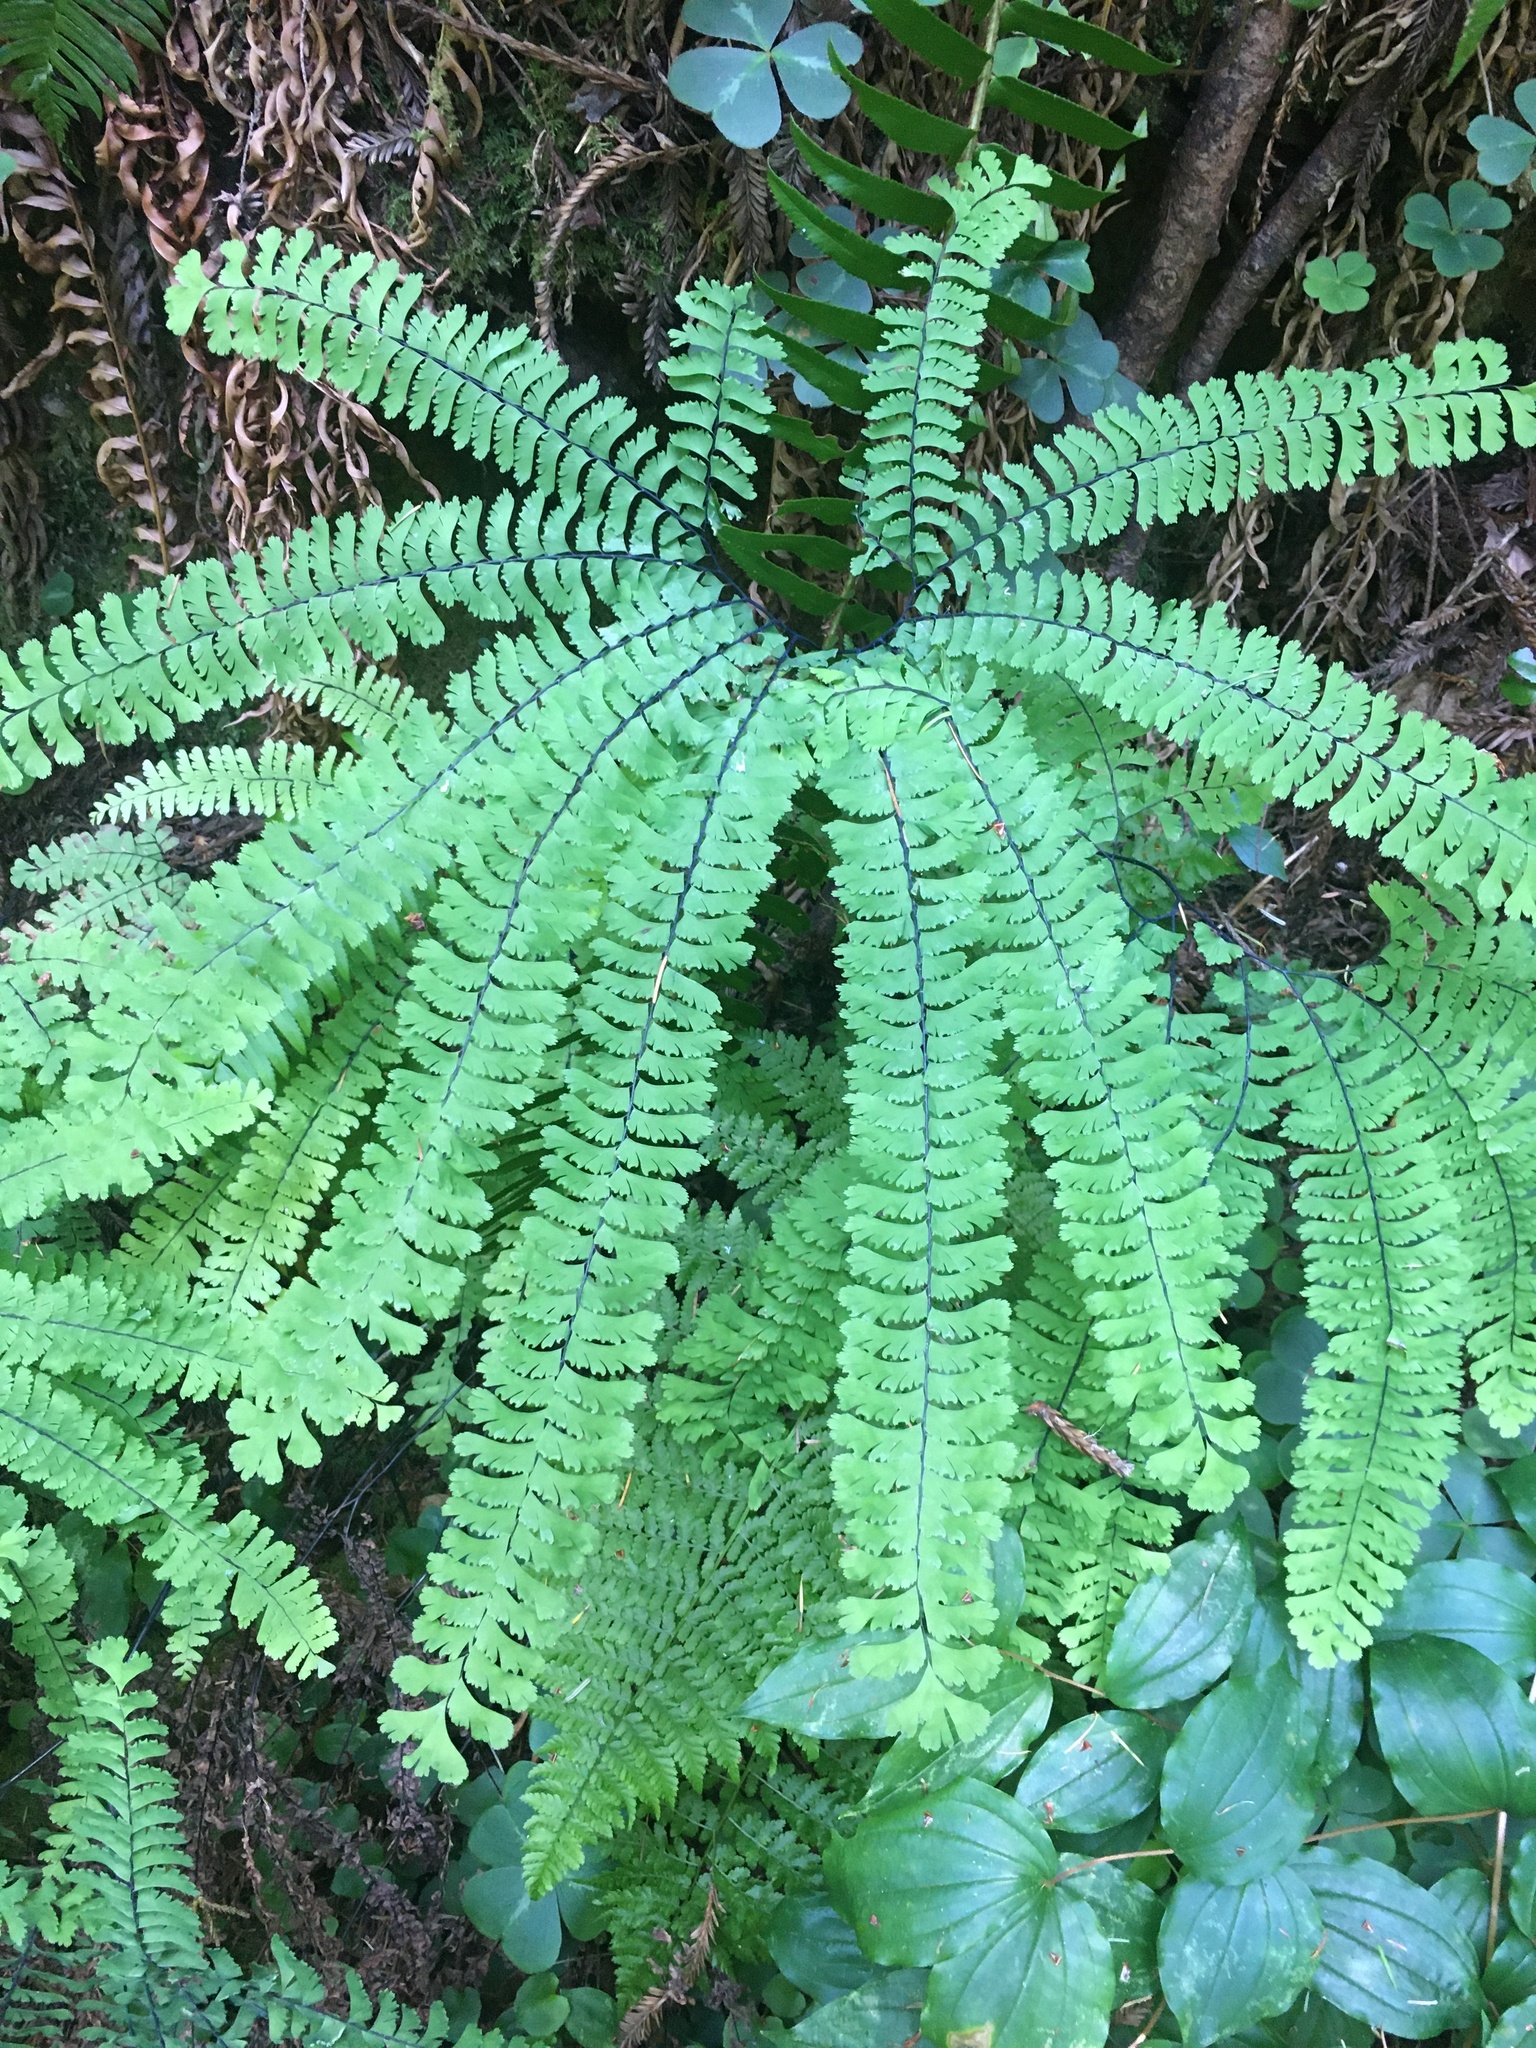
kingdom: Plantae
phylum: Tracheophyta
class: Polypodiopsida
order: Polypodiales
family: Pteridaceae
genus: Adiantum
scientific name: Adiantum aleuticum
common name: Aleutian maidenhair fern
